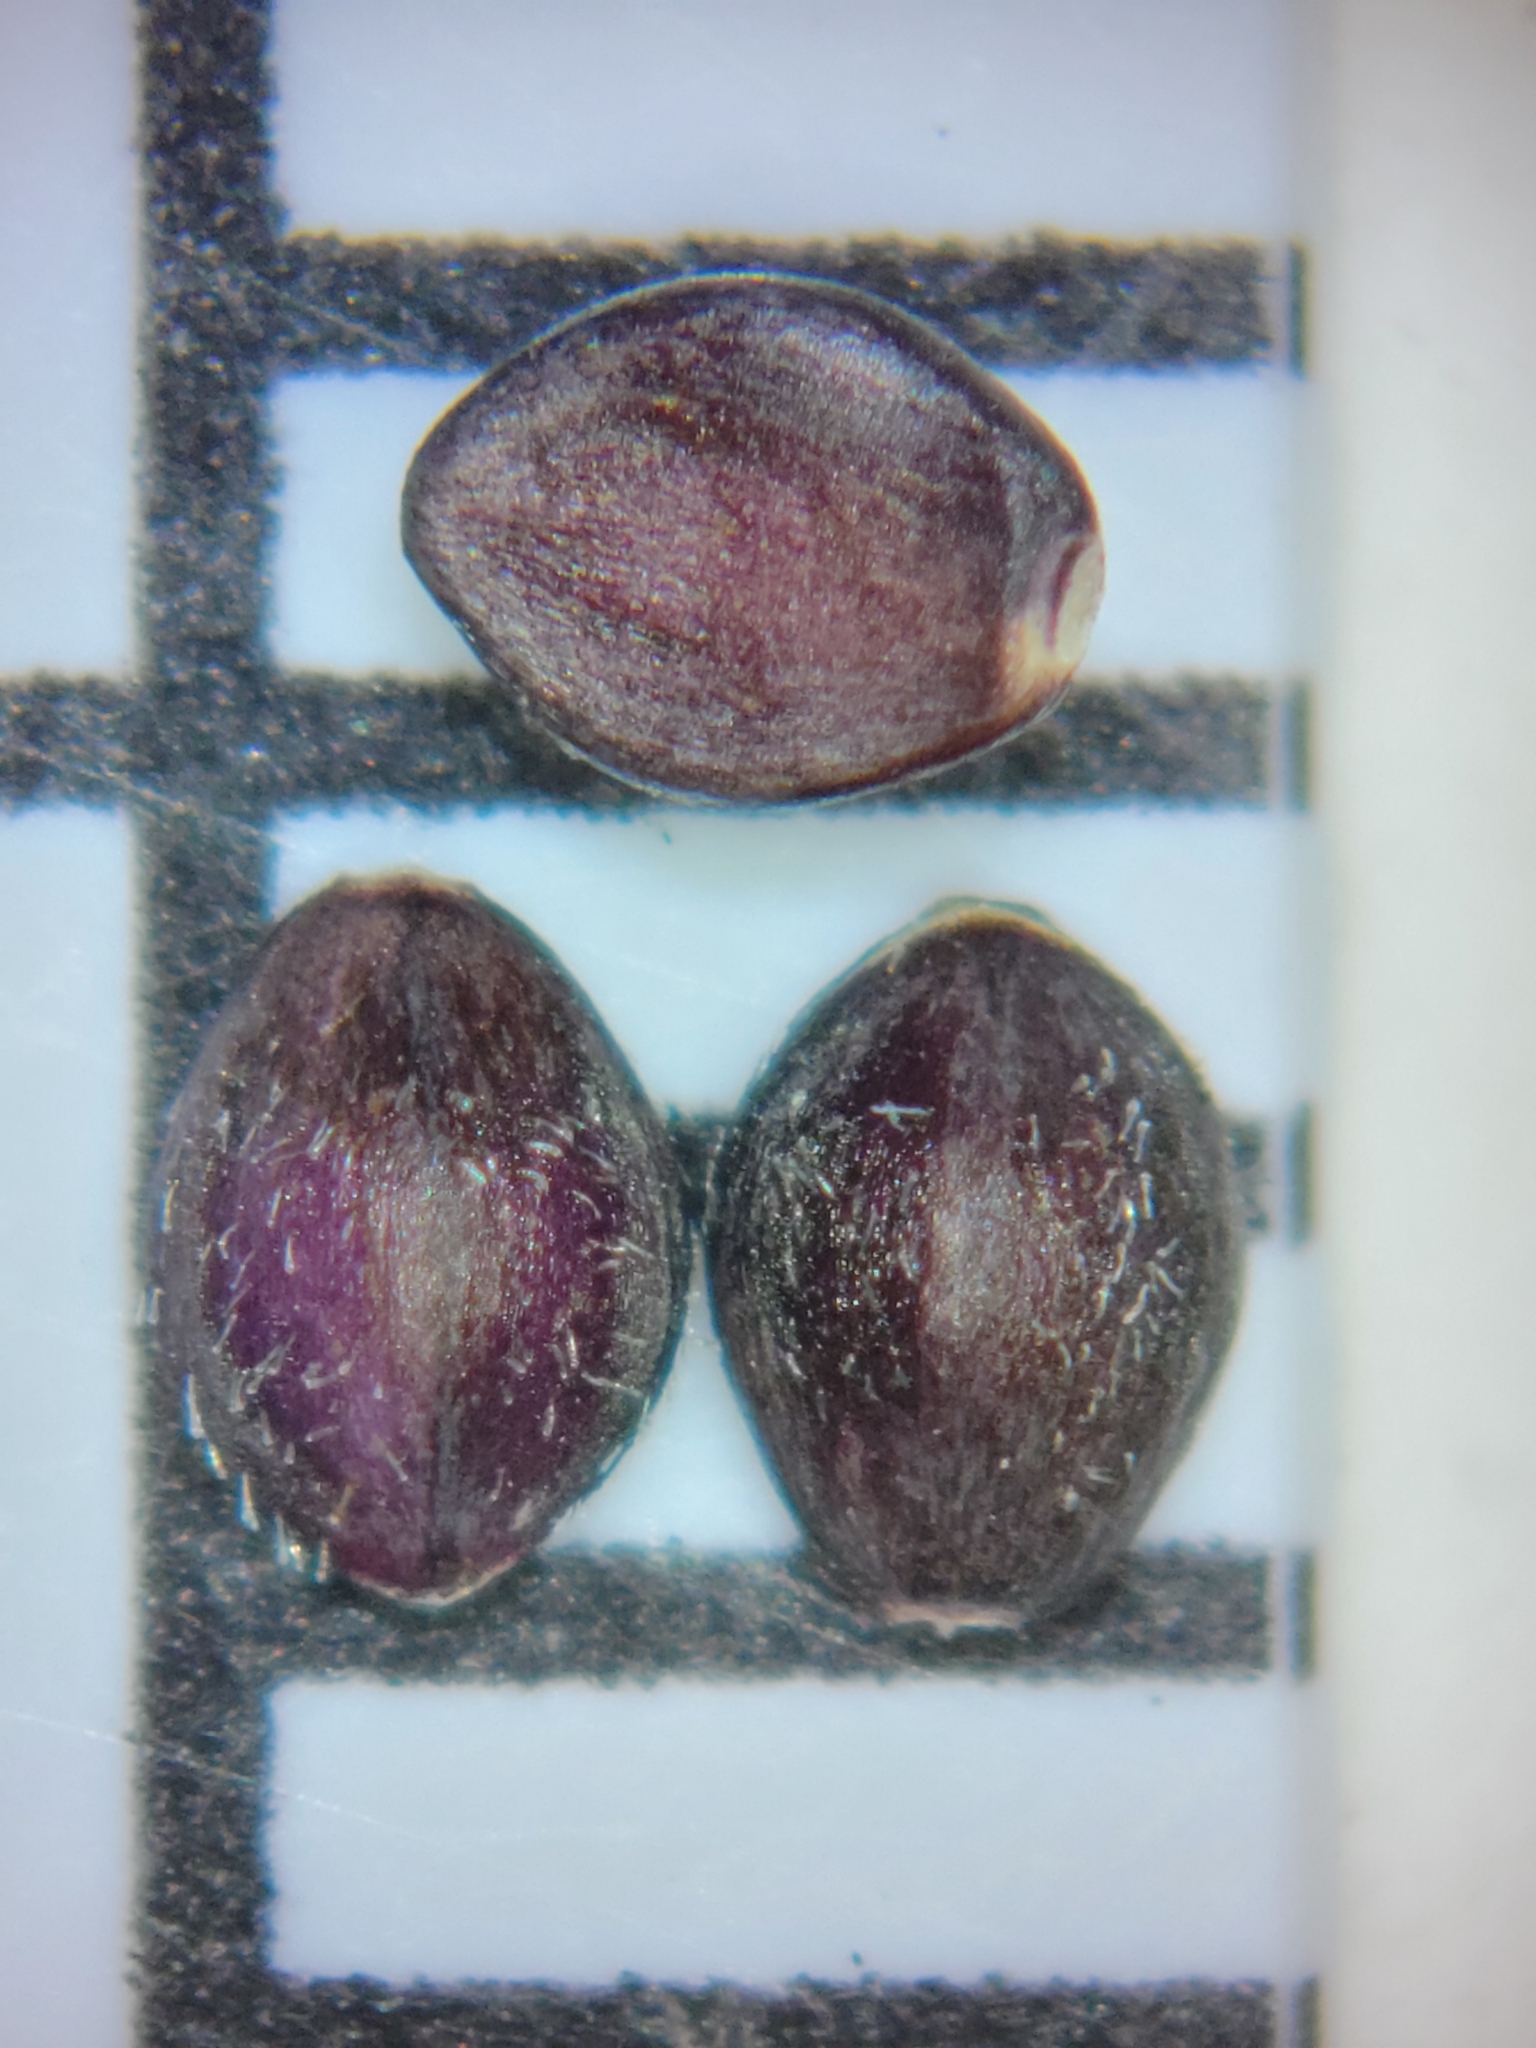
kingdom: Plantae
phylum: Tracheophyta
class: Liliopsida
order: Poales
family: Poaceae
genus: Paspalum
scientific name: Paspalum setaceum
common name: Slender paspalum
